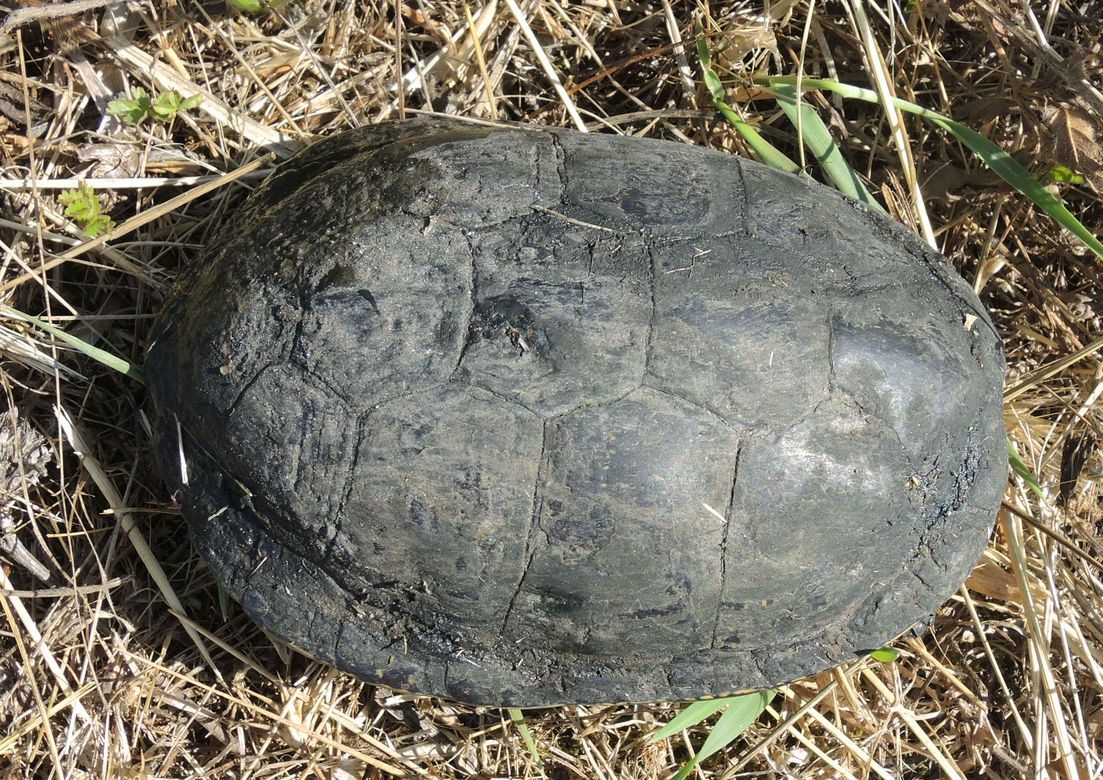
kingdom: Animalia
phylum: Chordata
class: Testudines
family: Emydidae
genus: Emys
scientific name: Emys orbicularis
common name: European pond turtle
